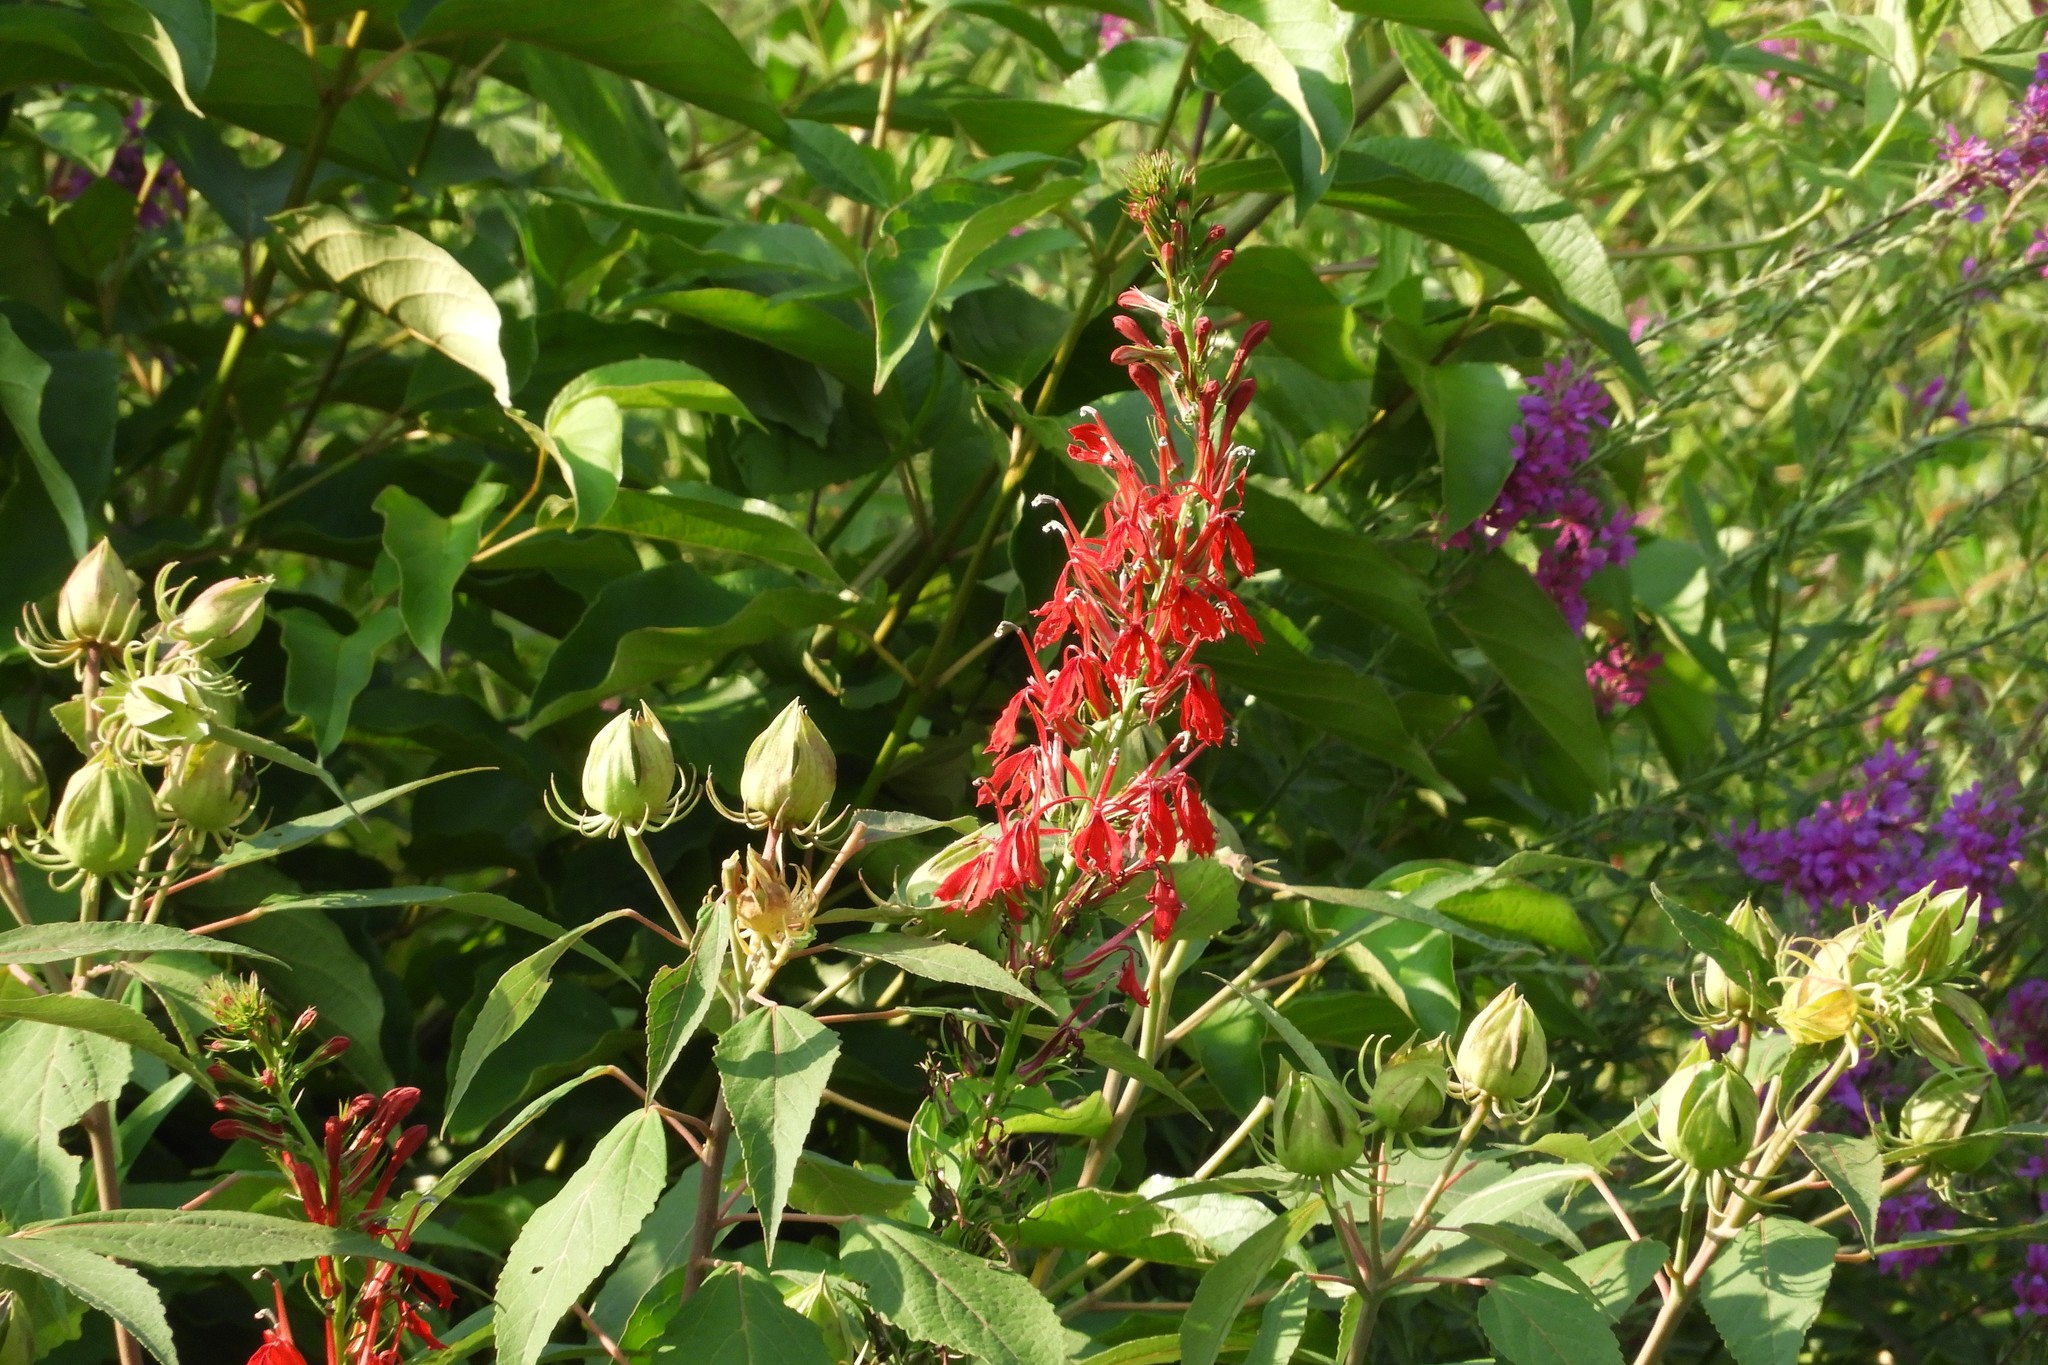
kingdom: Plantae
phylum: Tracheophyta
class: Magnoliopsida
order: Asterales
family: Campanulaceae
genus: Lobelia
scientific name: Lobelia cardinalis
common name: Cardinal flower
